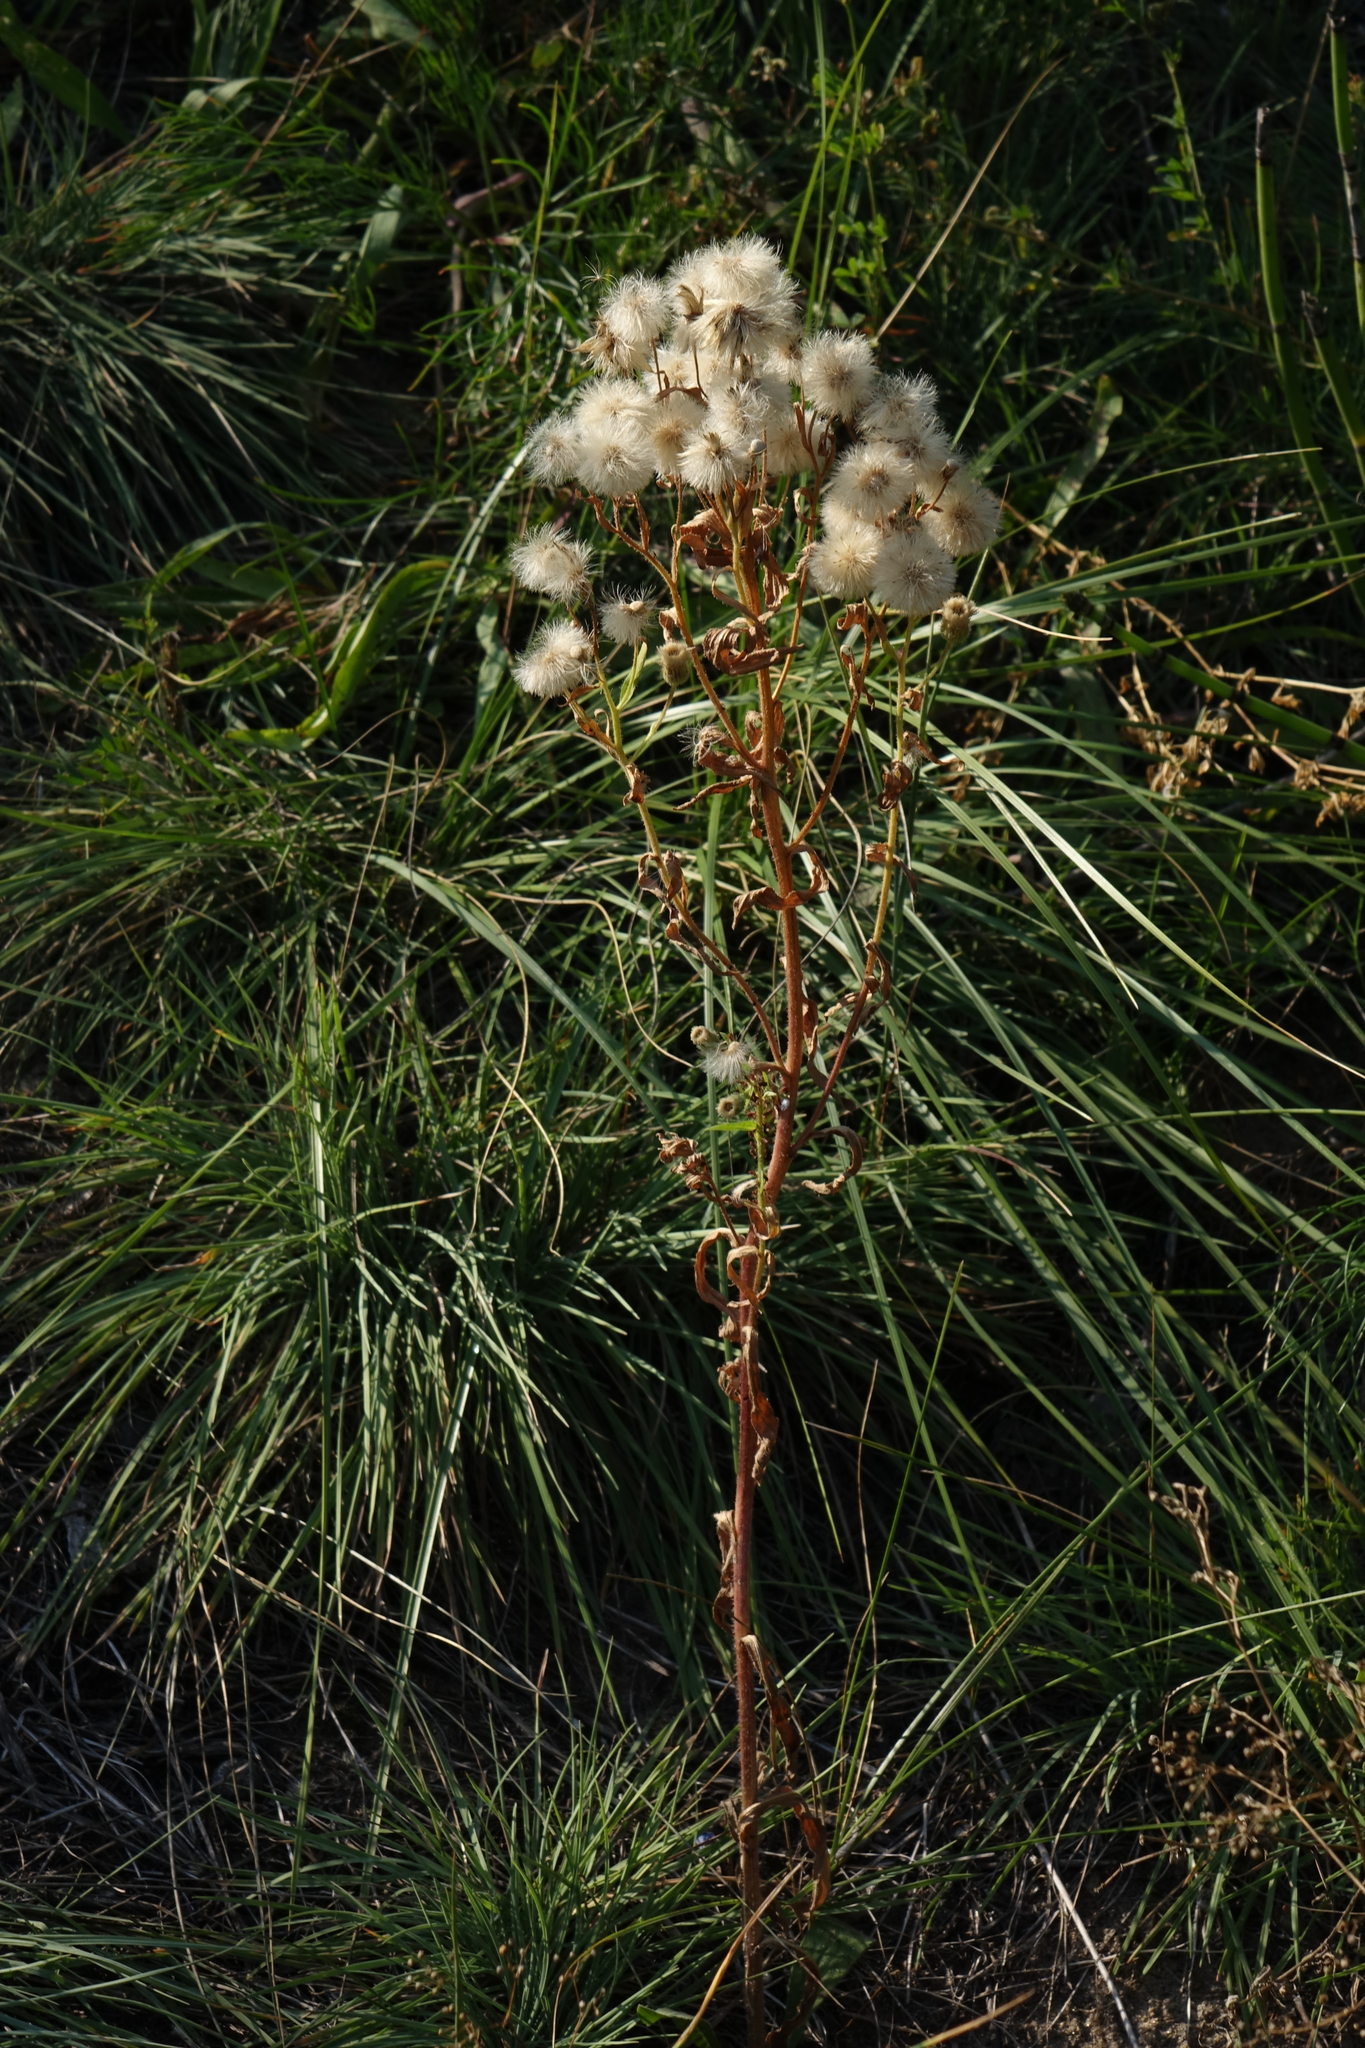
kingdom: Plantae
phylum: Tracheophyta
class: Magnoliopsida
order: Asterales
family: Asteraceae
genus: Erigeron
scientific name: Erigeron acris
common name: Blue fleabane
